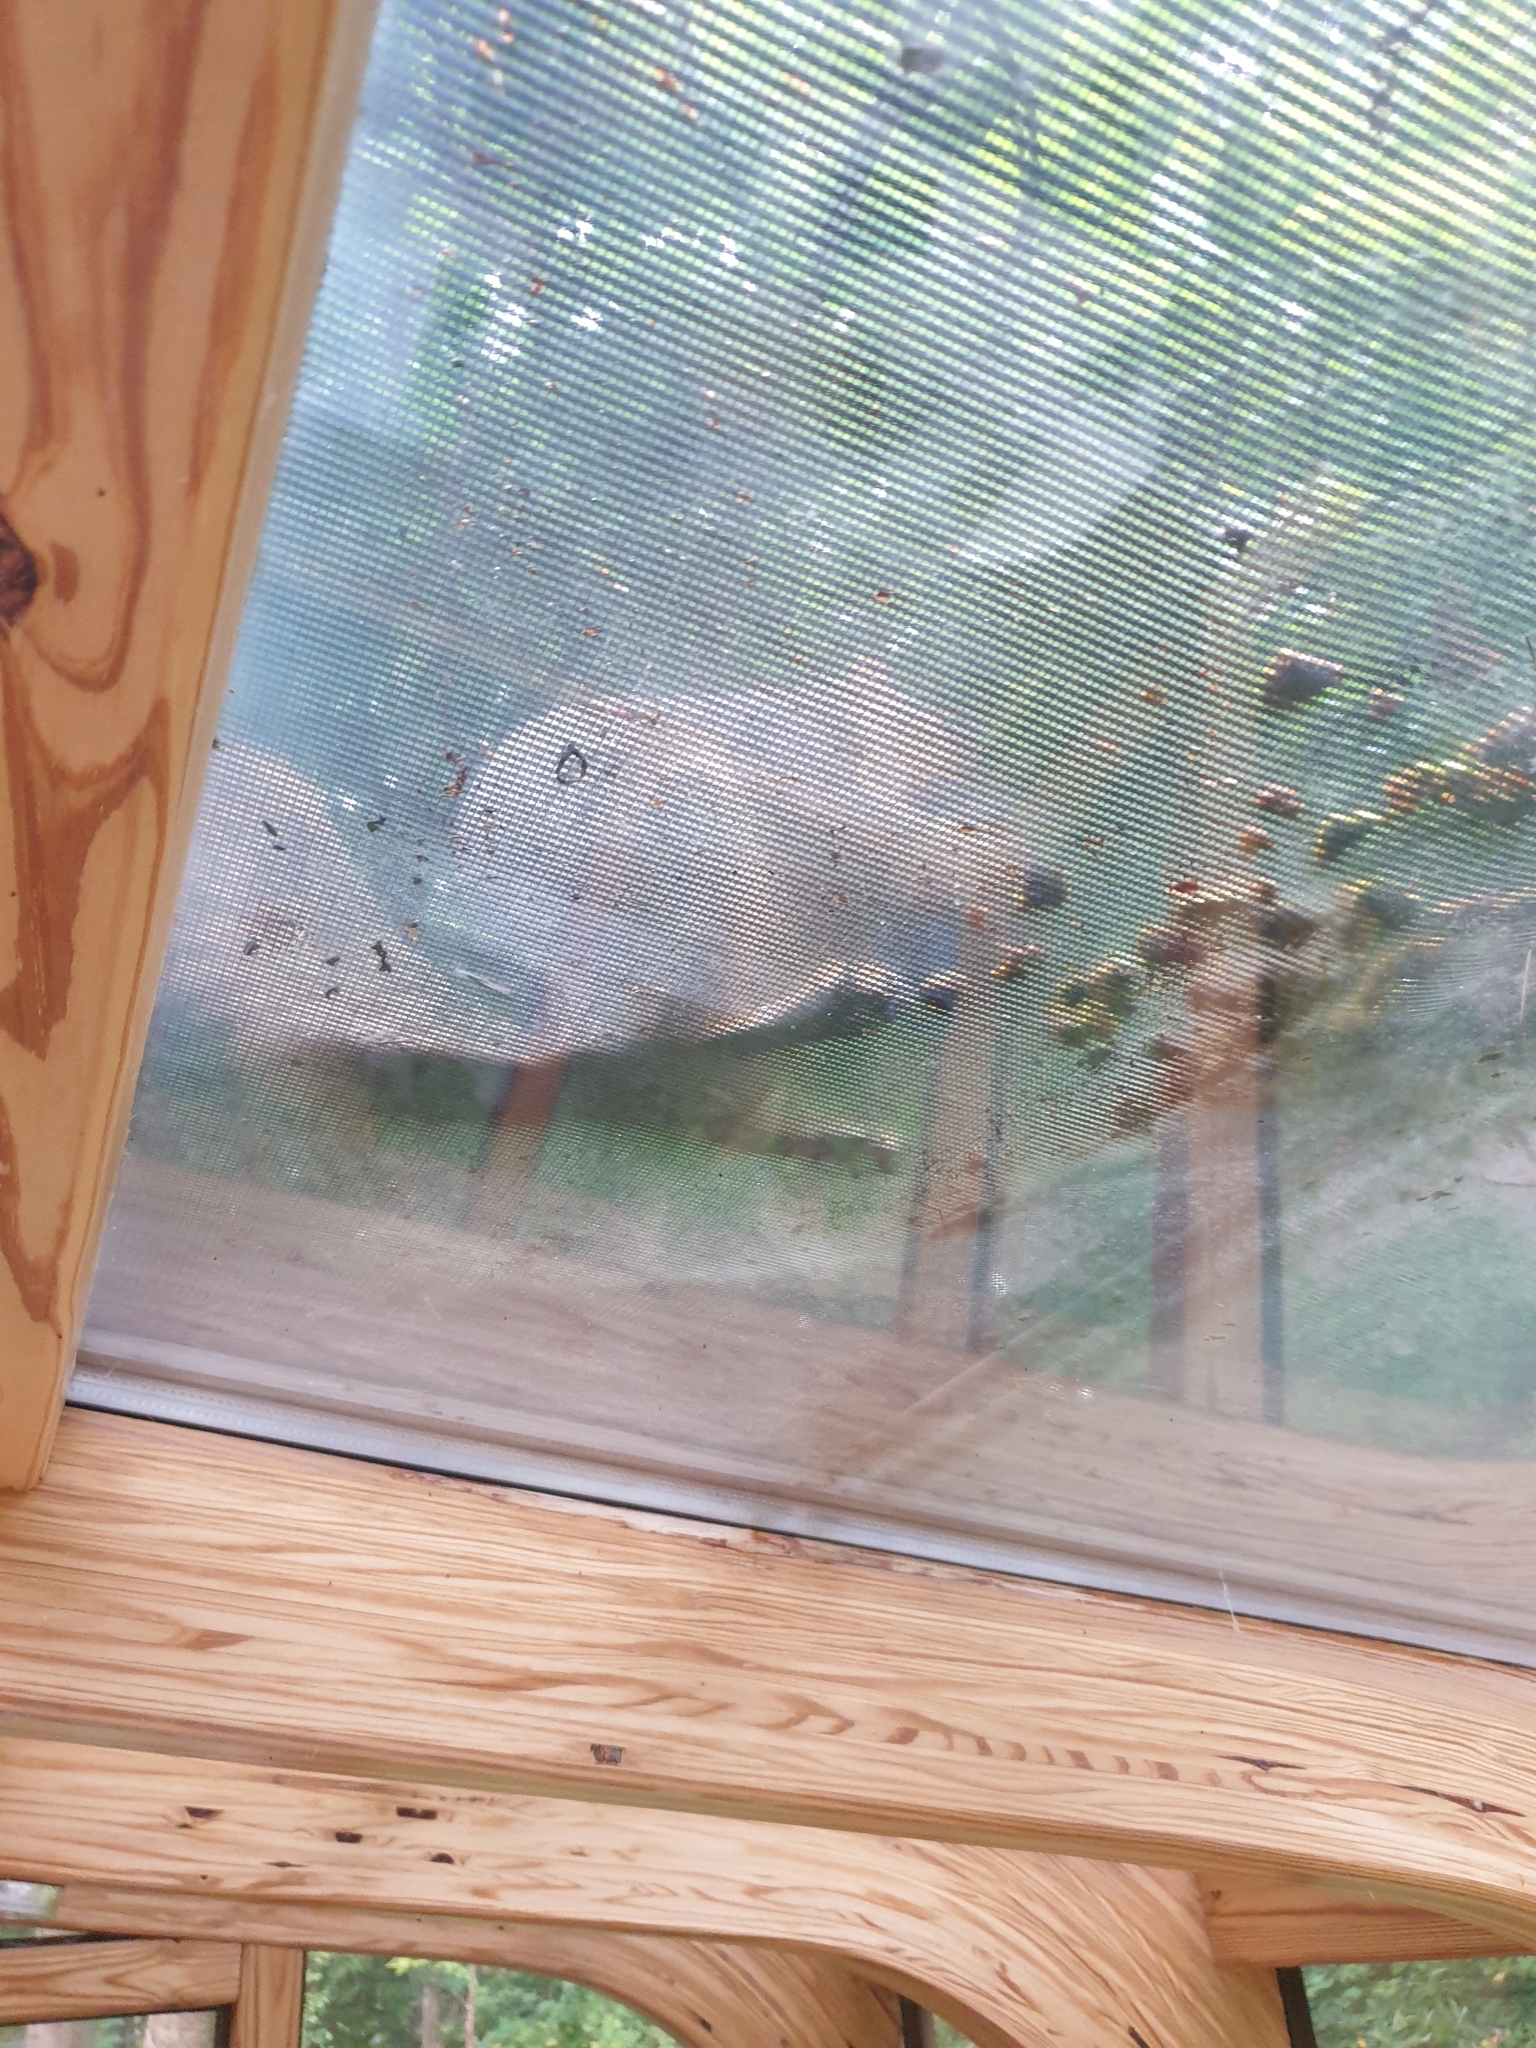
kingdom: Animalia
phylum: Chordata
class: Mammalia
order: Rodentia
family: Sciuridae
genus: Sciurus
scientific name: Sciurus niger
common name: Fox squirrel
